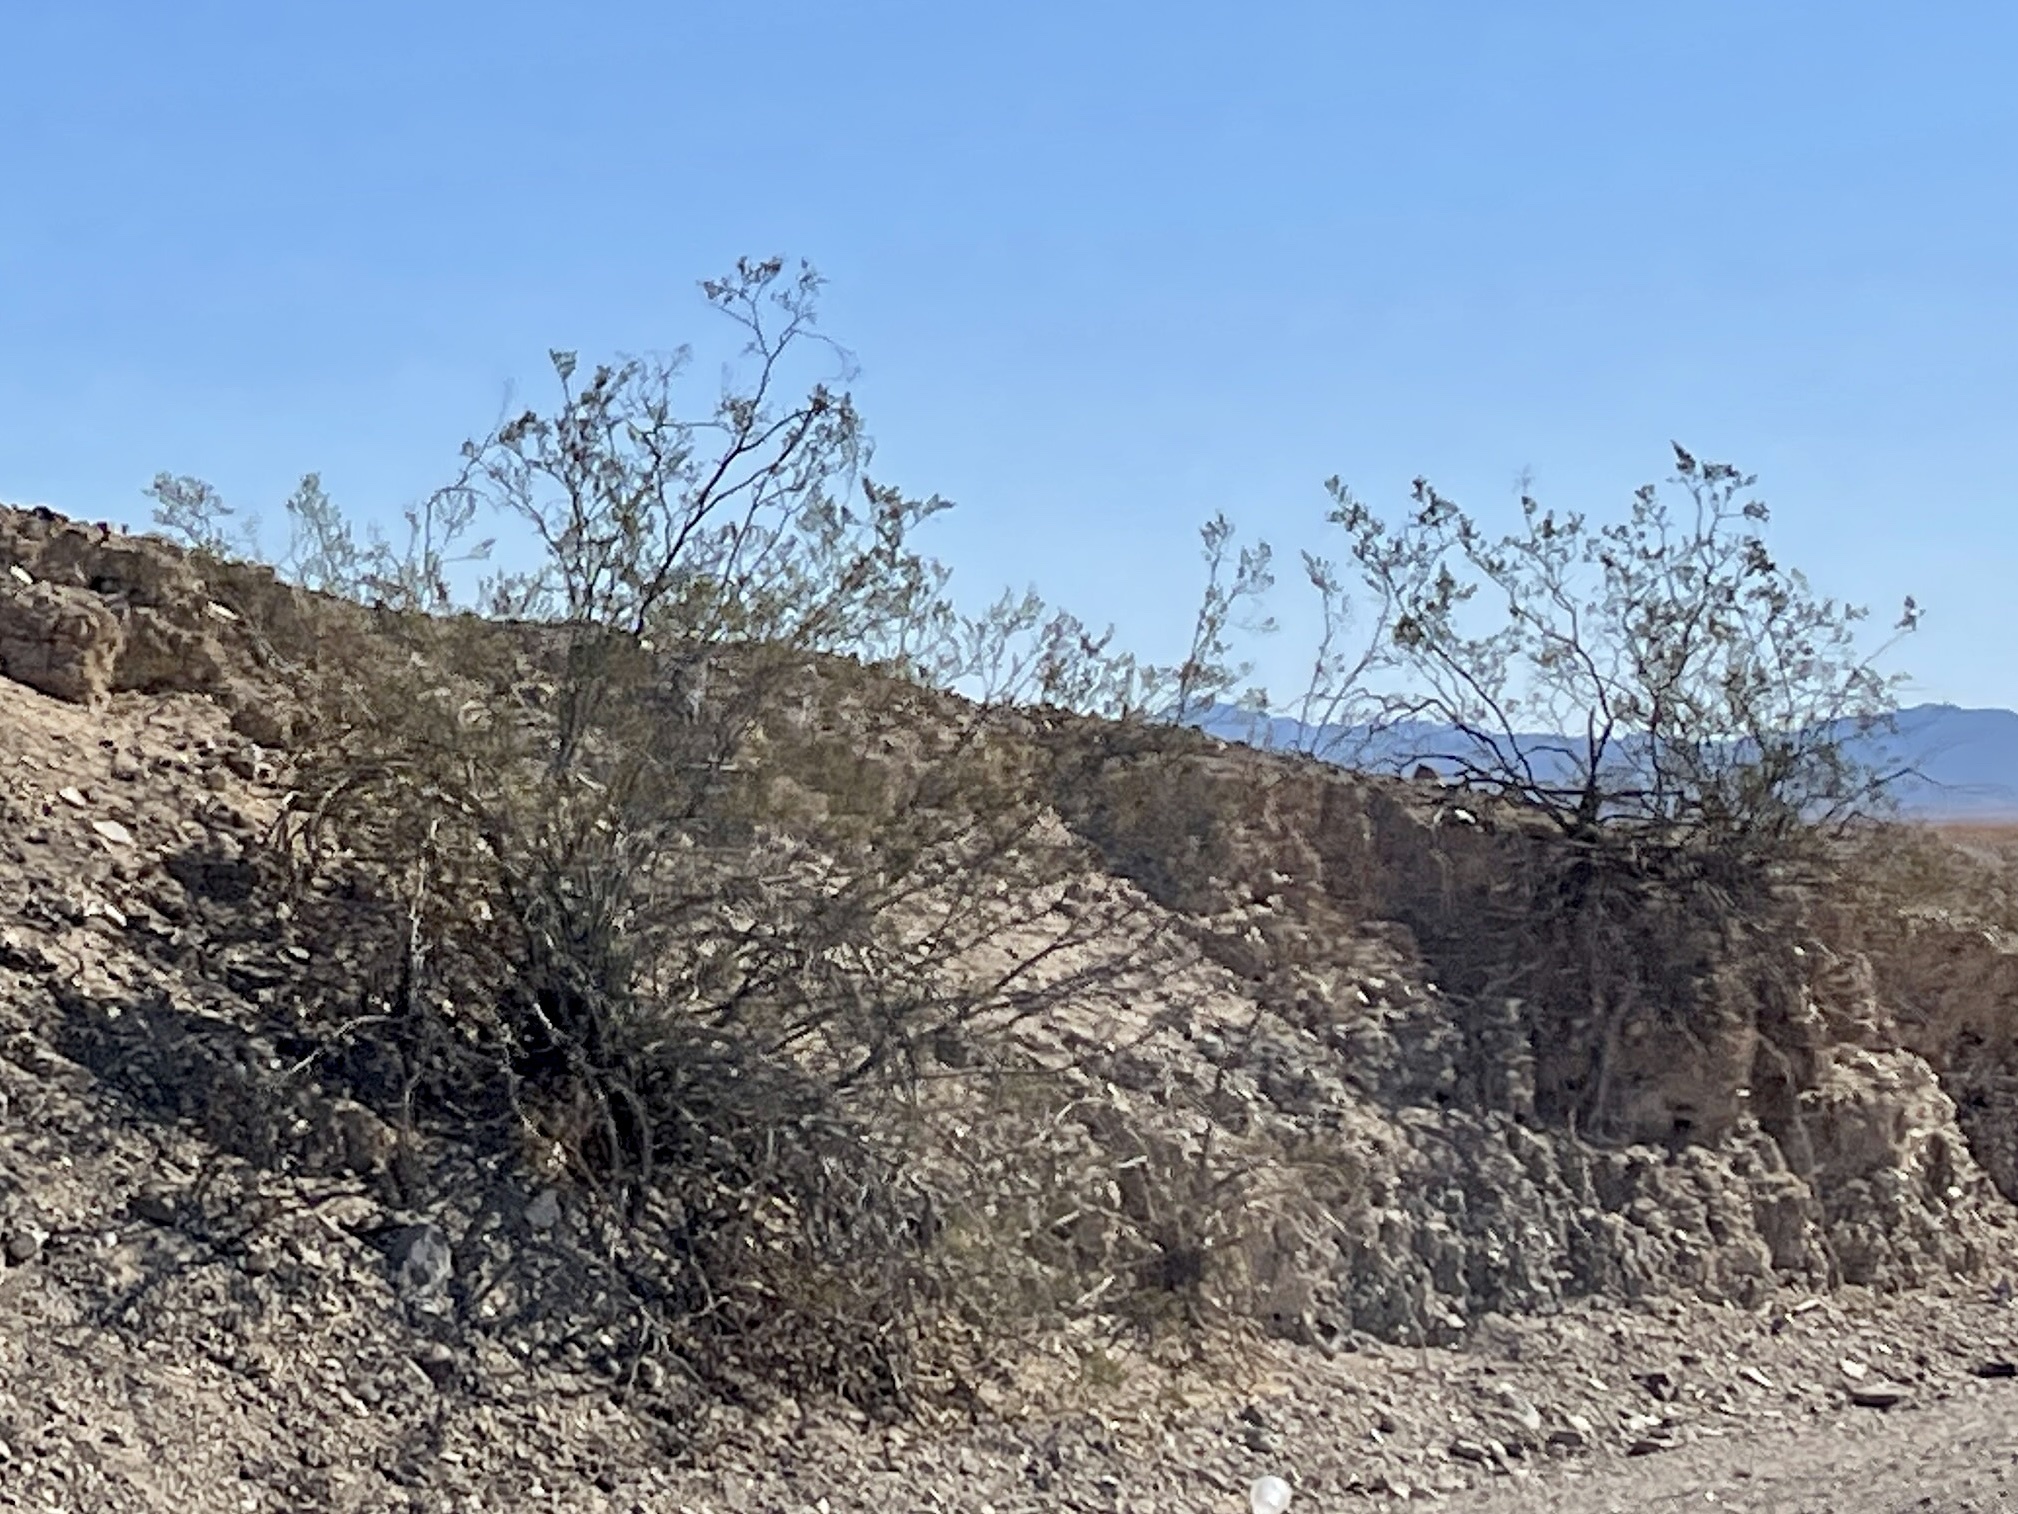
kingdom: Plantae
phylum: Tracheophyta
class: Magnoliopsida
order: Zygophyllales
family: Zygophyllaceae
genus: Larrea
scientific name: Larrea tridentata
